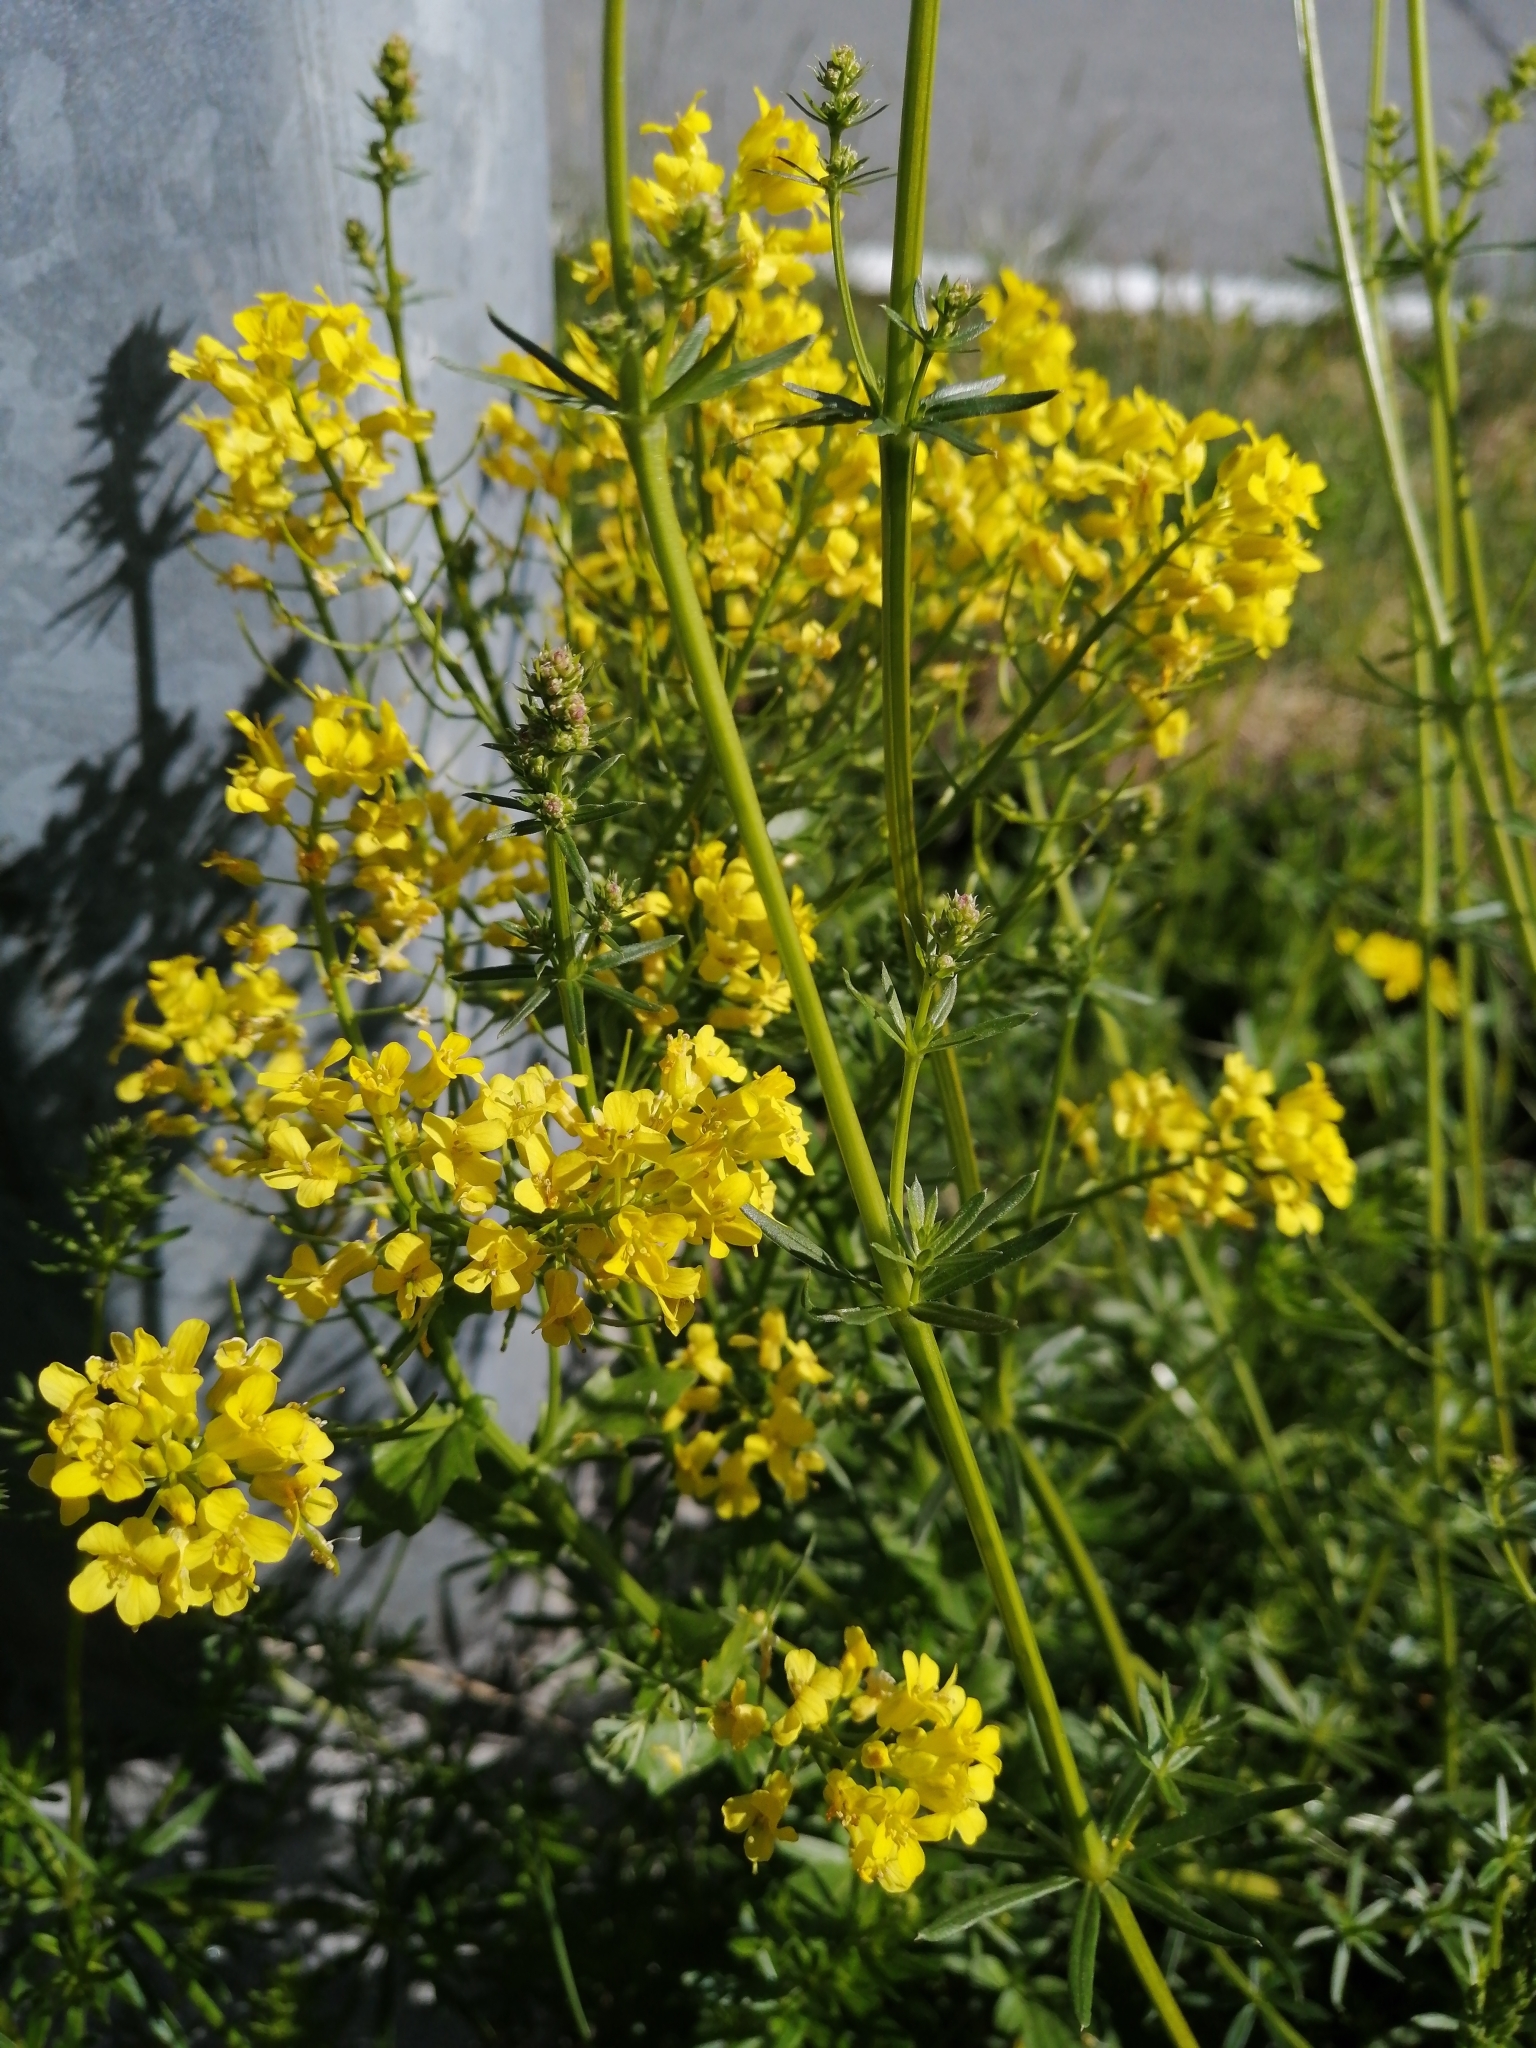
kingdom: Plantae
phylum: Tracheophyta
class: Magnoliopsida
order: Brassicales
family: Brassicaceae
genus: Barbarea
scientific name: Barbarea vulgaris
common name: Cressy-greens
